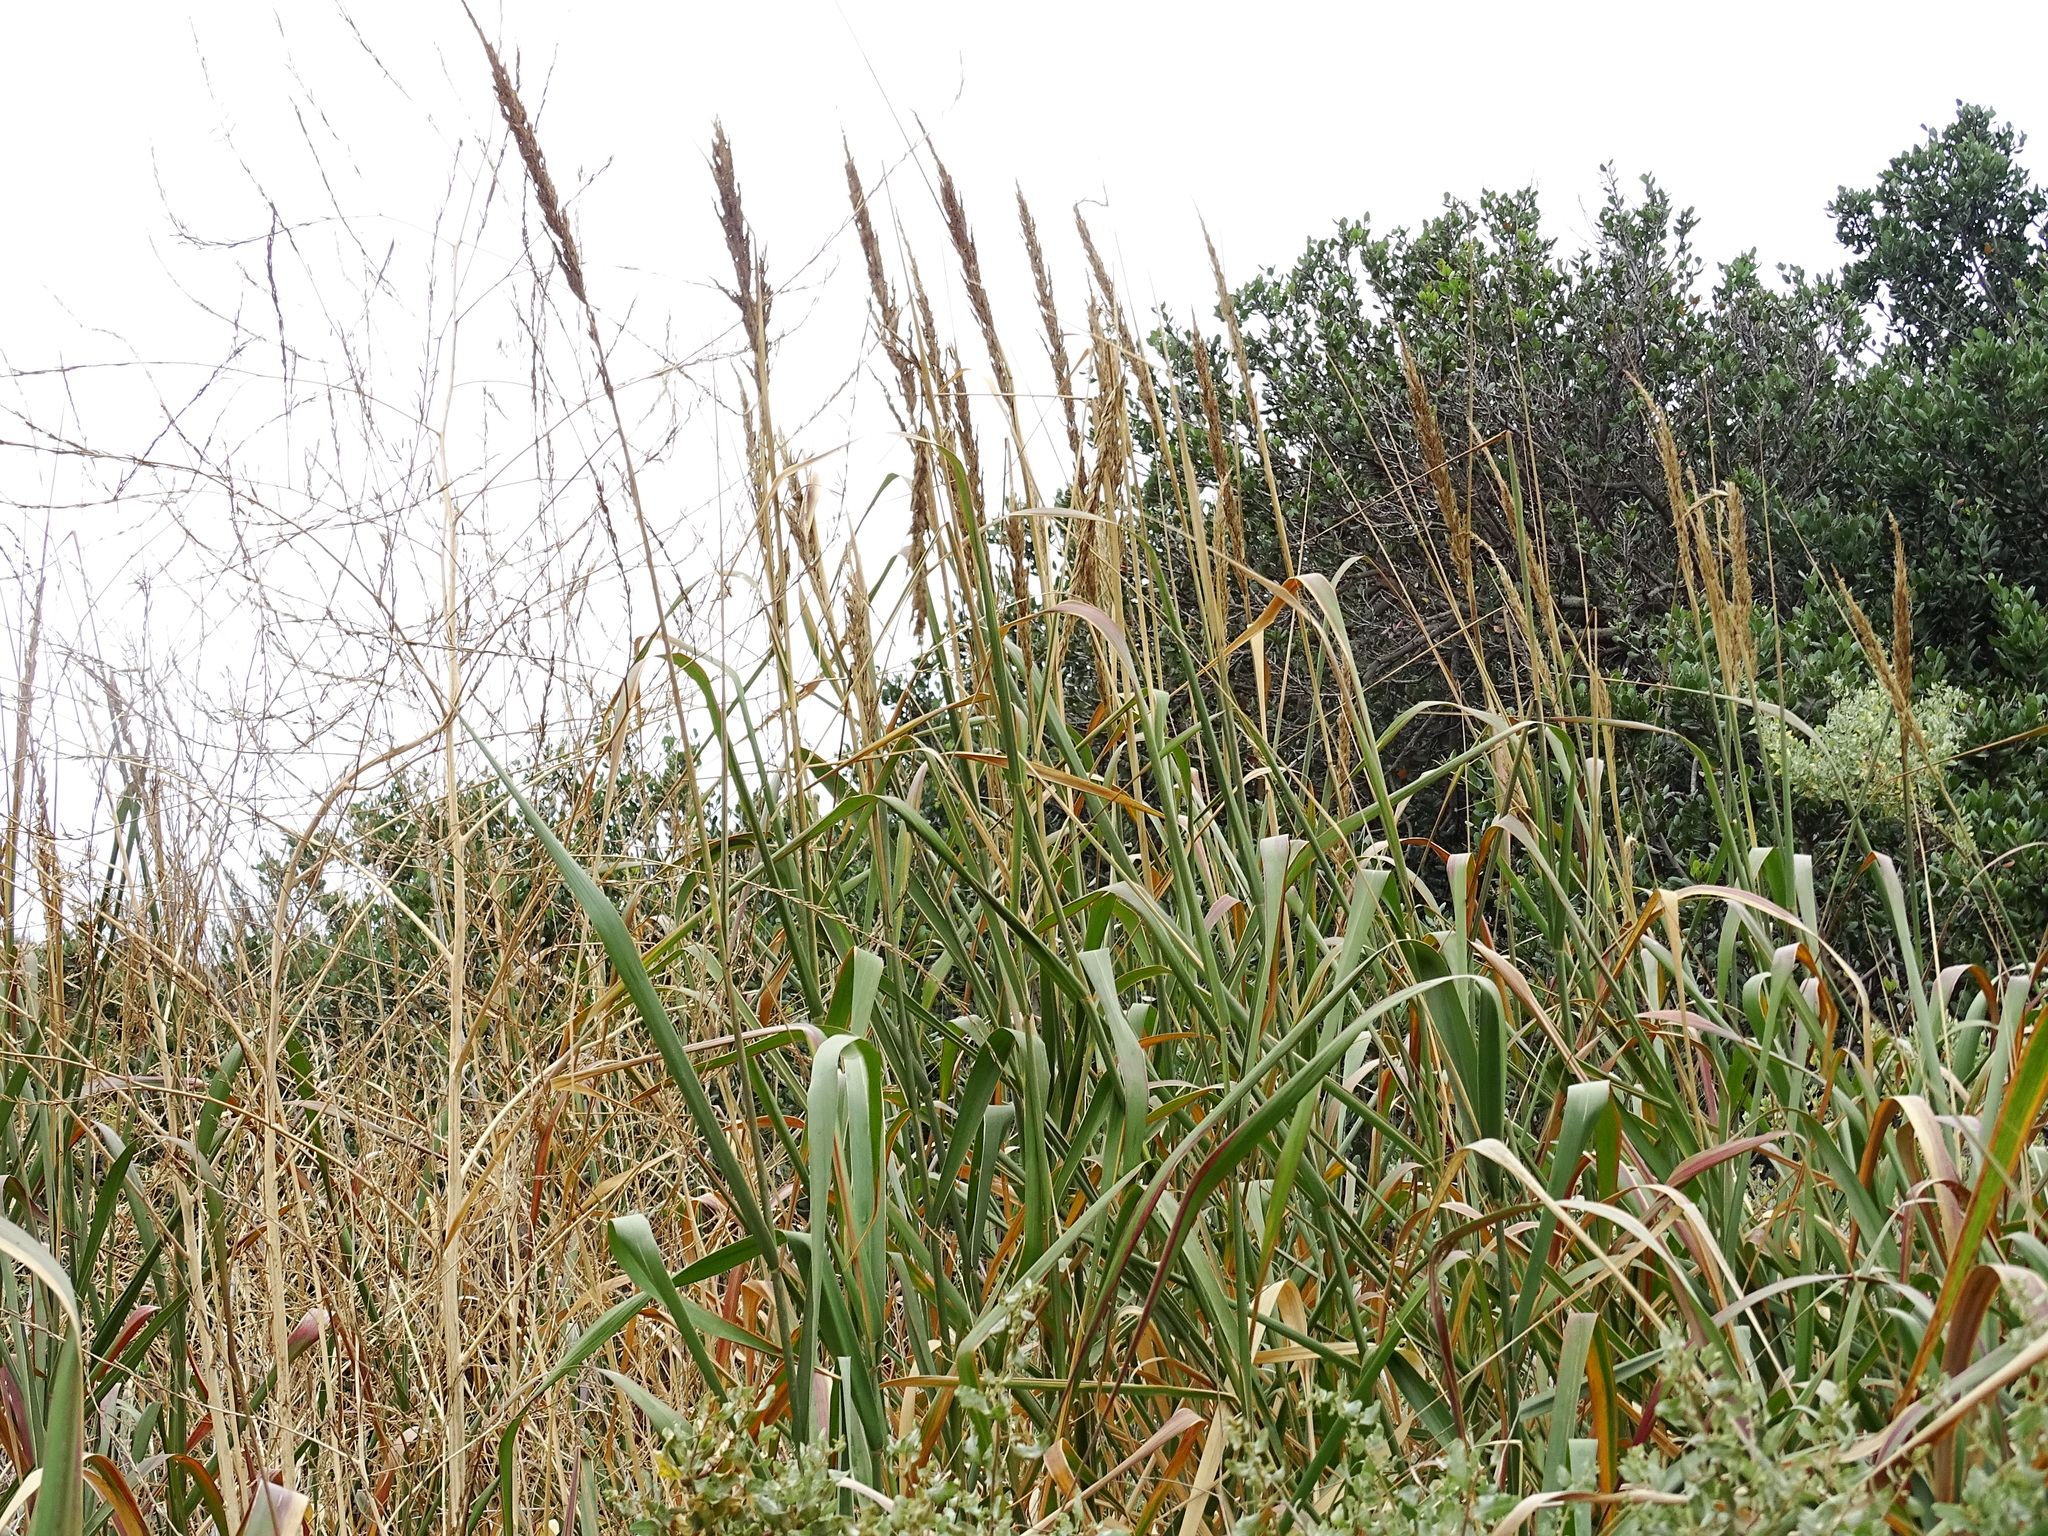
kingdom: Plantae
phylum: Tracheophyta
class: Liliopsida
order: Poales
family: Poaceae
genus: Leymus
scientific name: Leymus condensatus
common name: Giant wild rye
